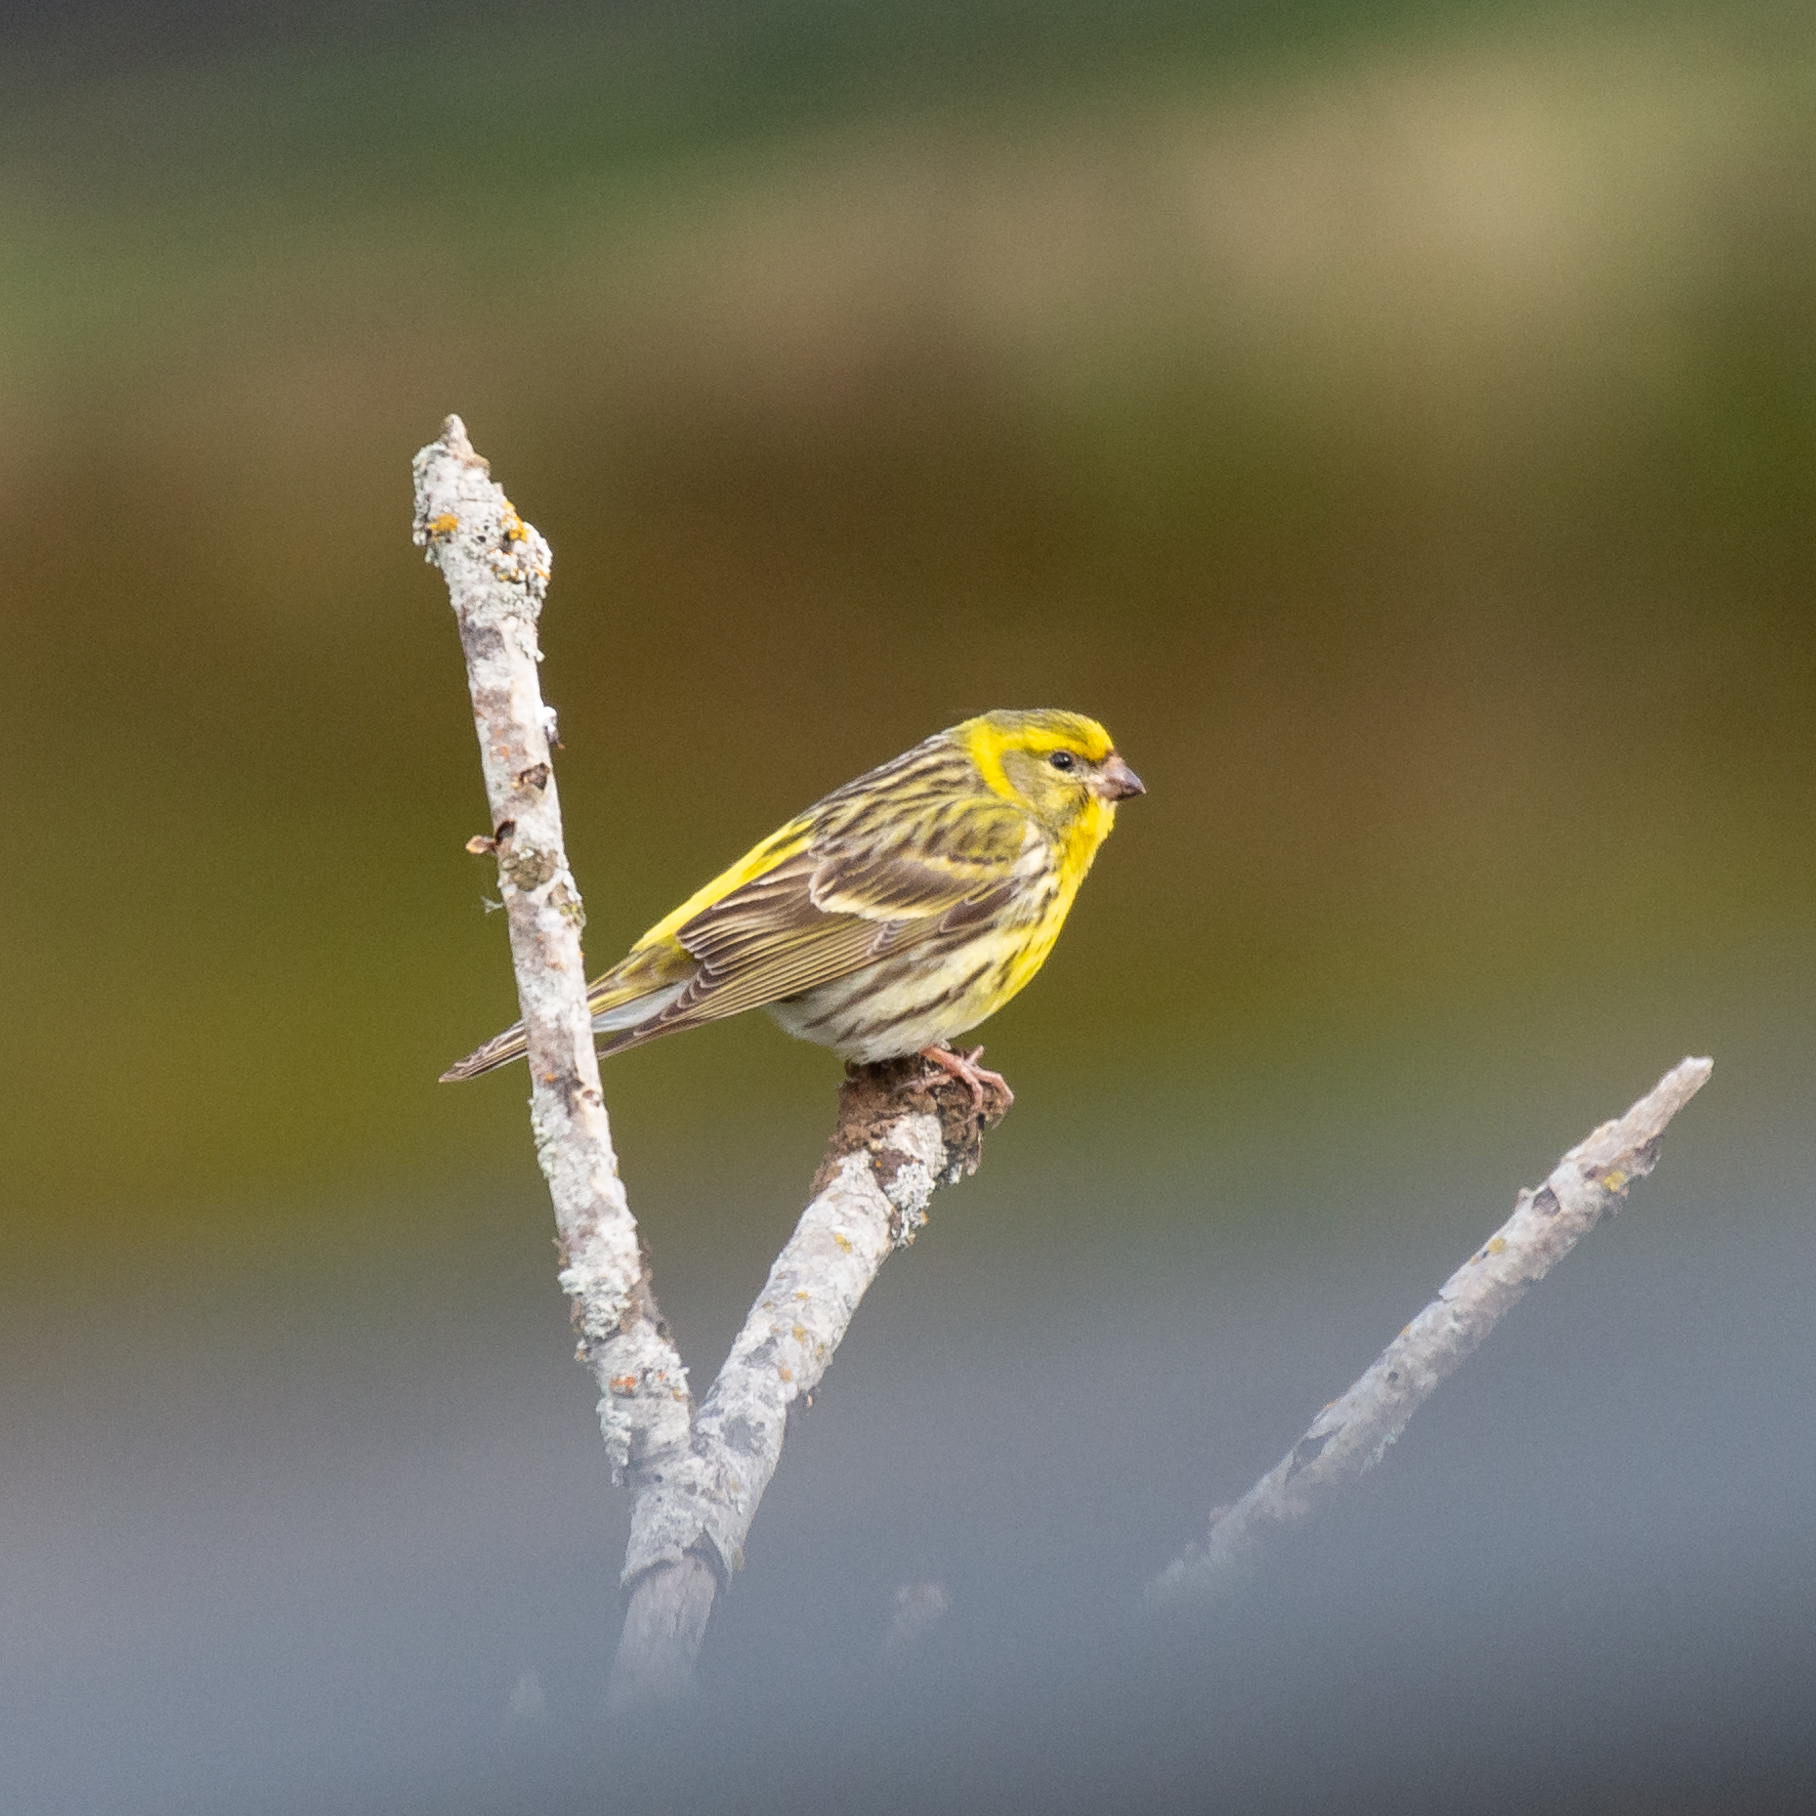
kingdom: Animalia
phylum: Chordata
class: Aves
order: Passeriformes
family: Fringillidae
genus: Serinus
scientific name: Serinus serinus
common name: European serin
